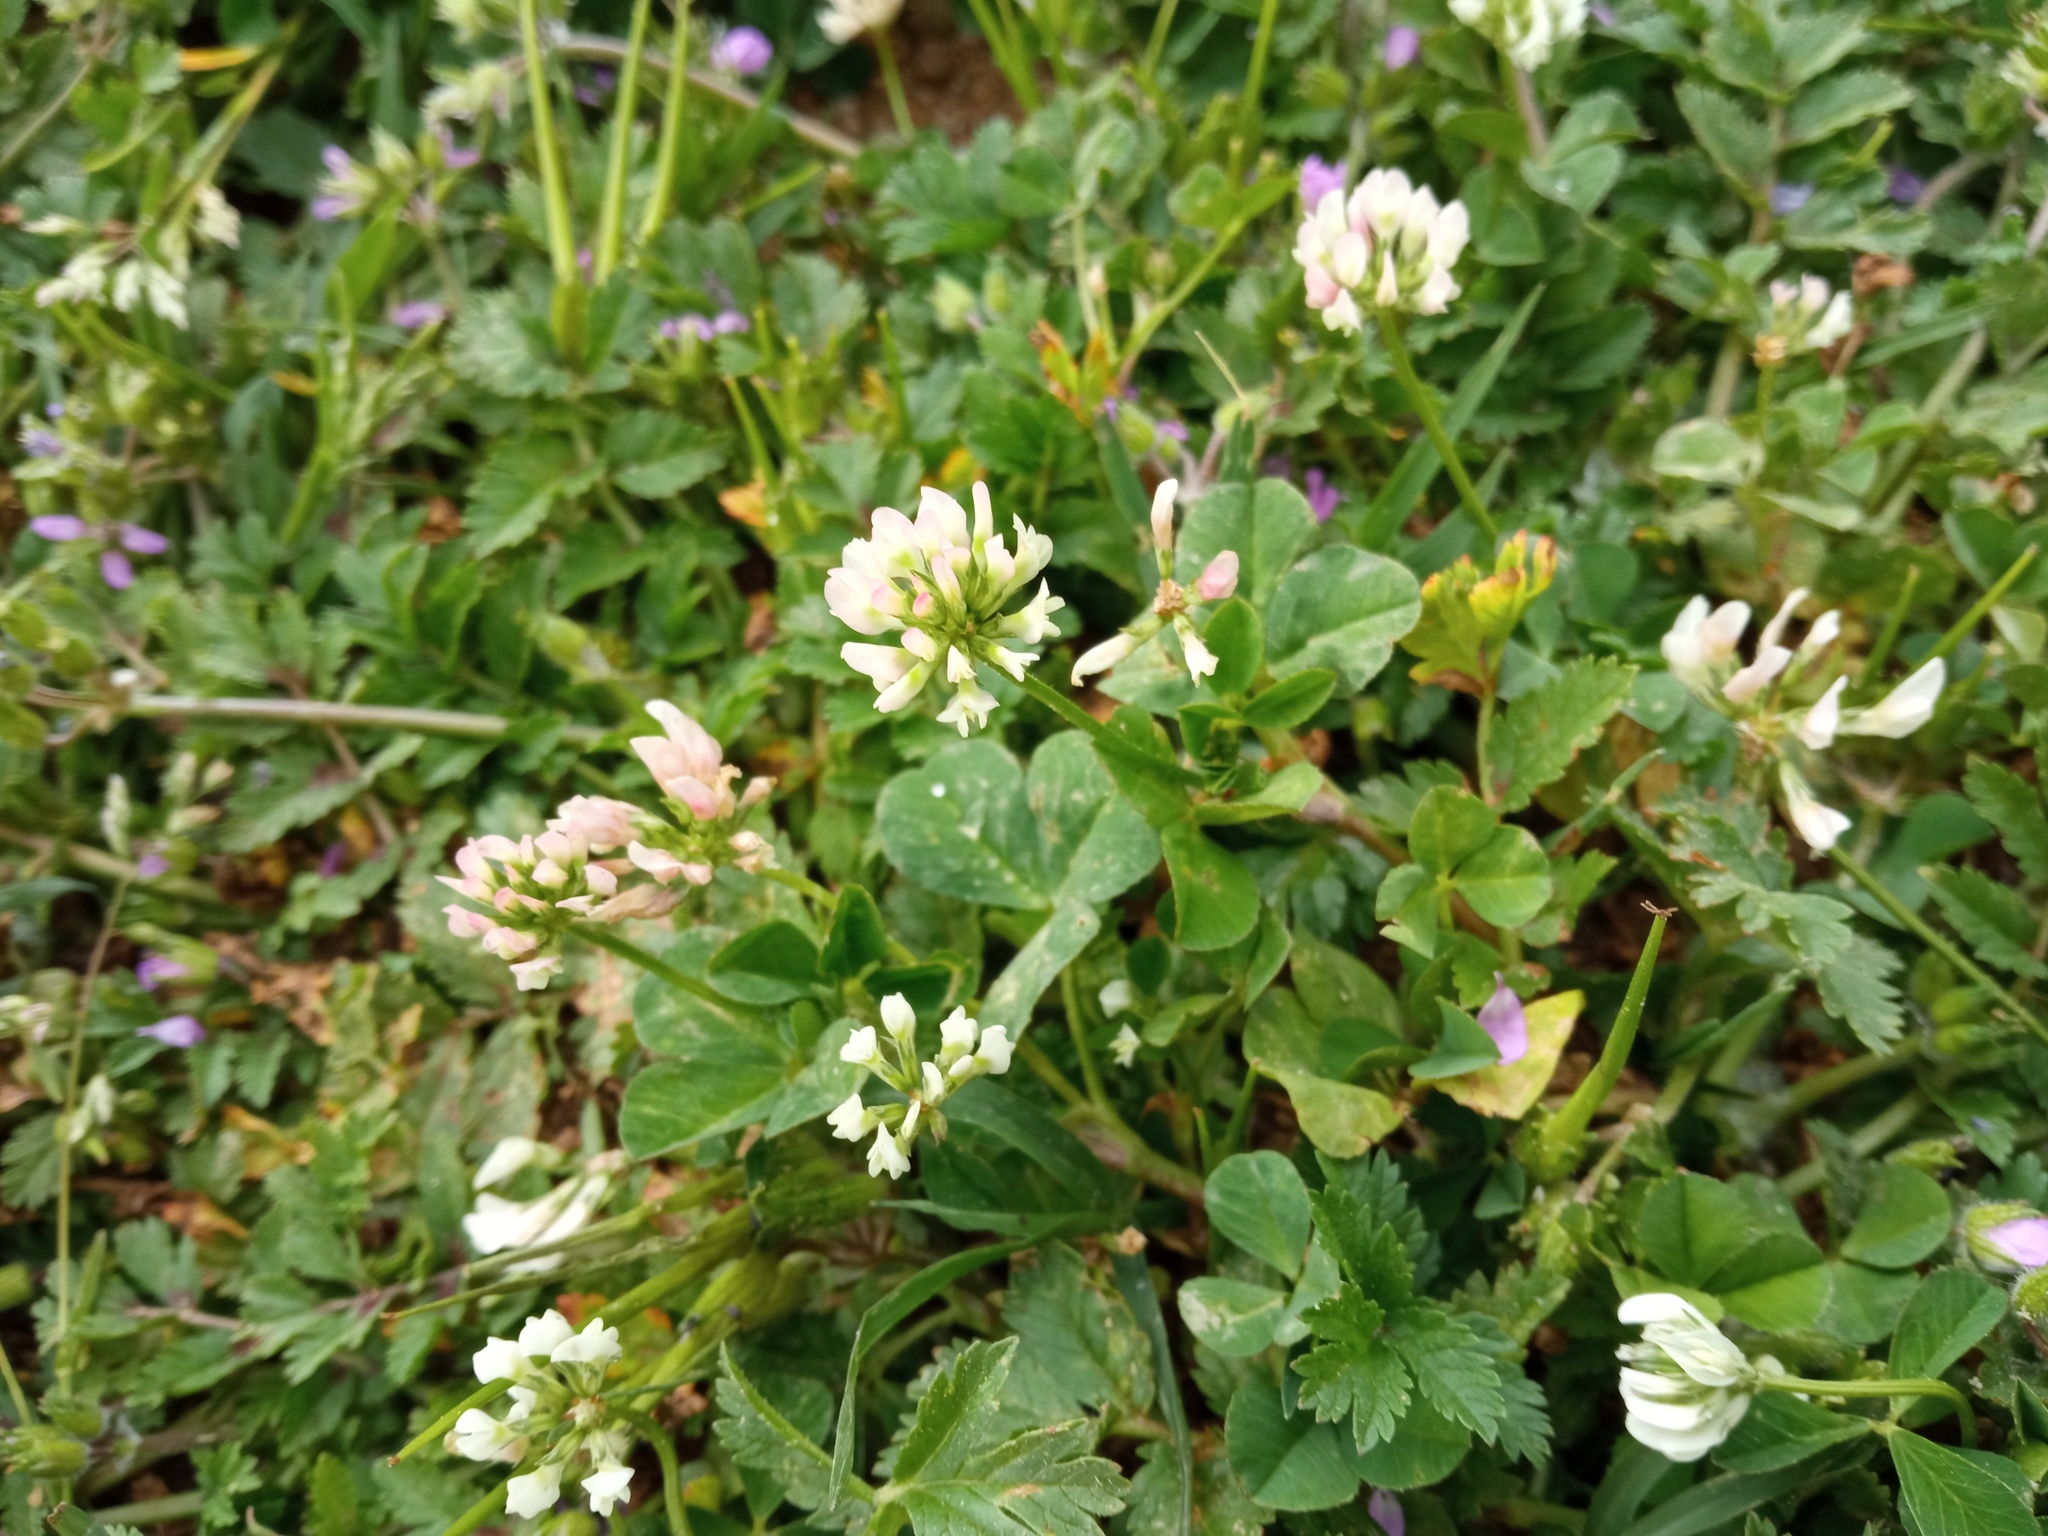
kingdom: Plantae
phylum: Tracheophyta
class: Magnoliopsida
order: Fabales
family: Fabaceae
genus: Trifolium
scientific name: Trifolium nigrescens
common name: Small white clover
